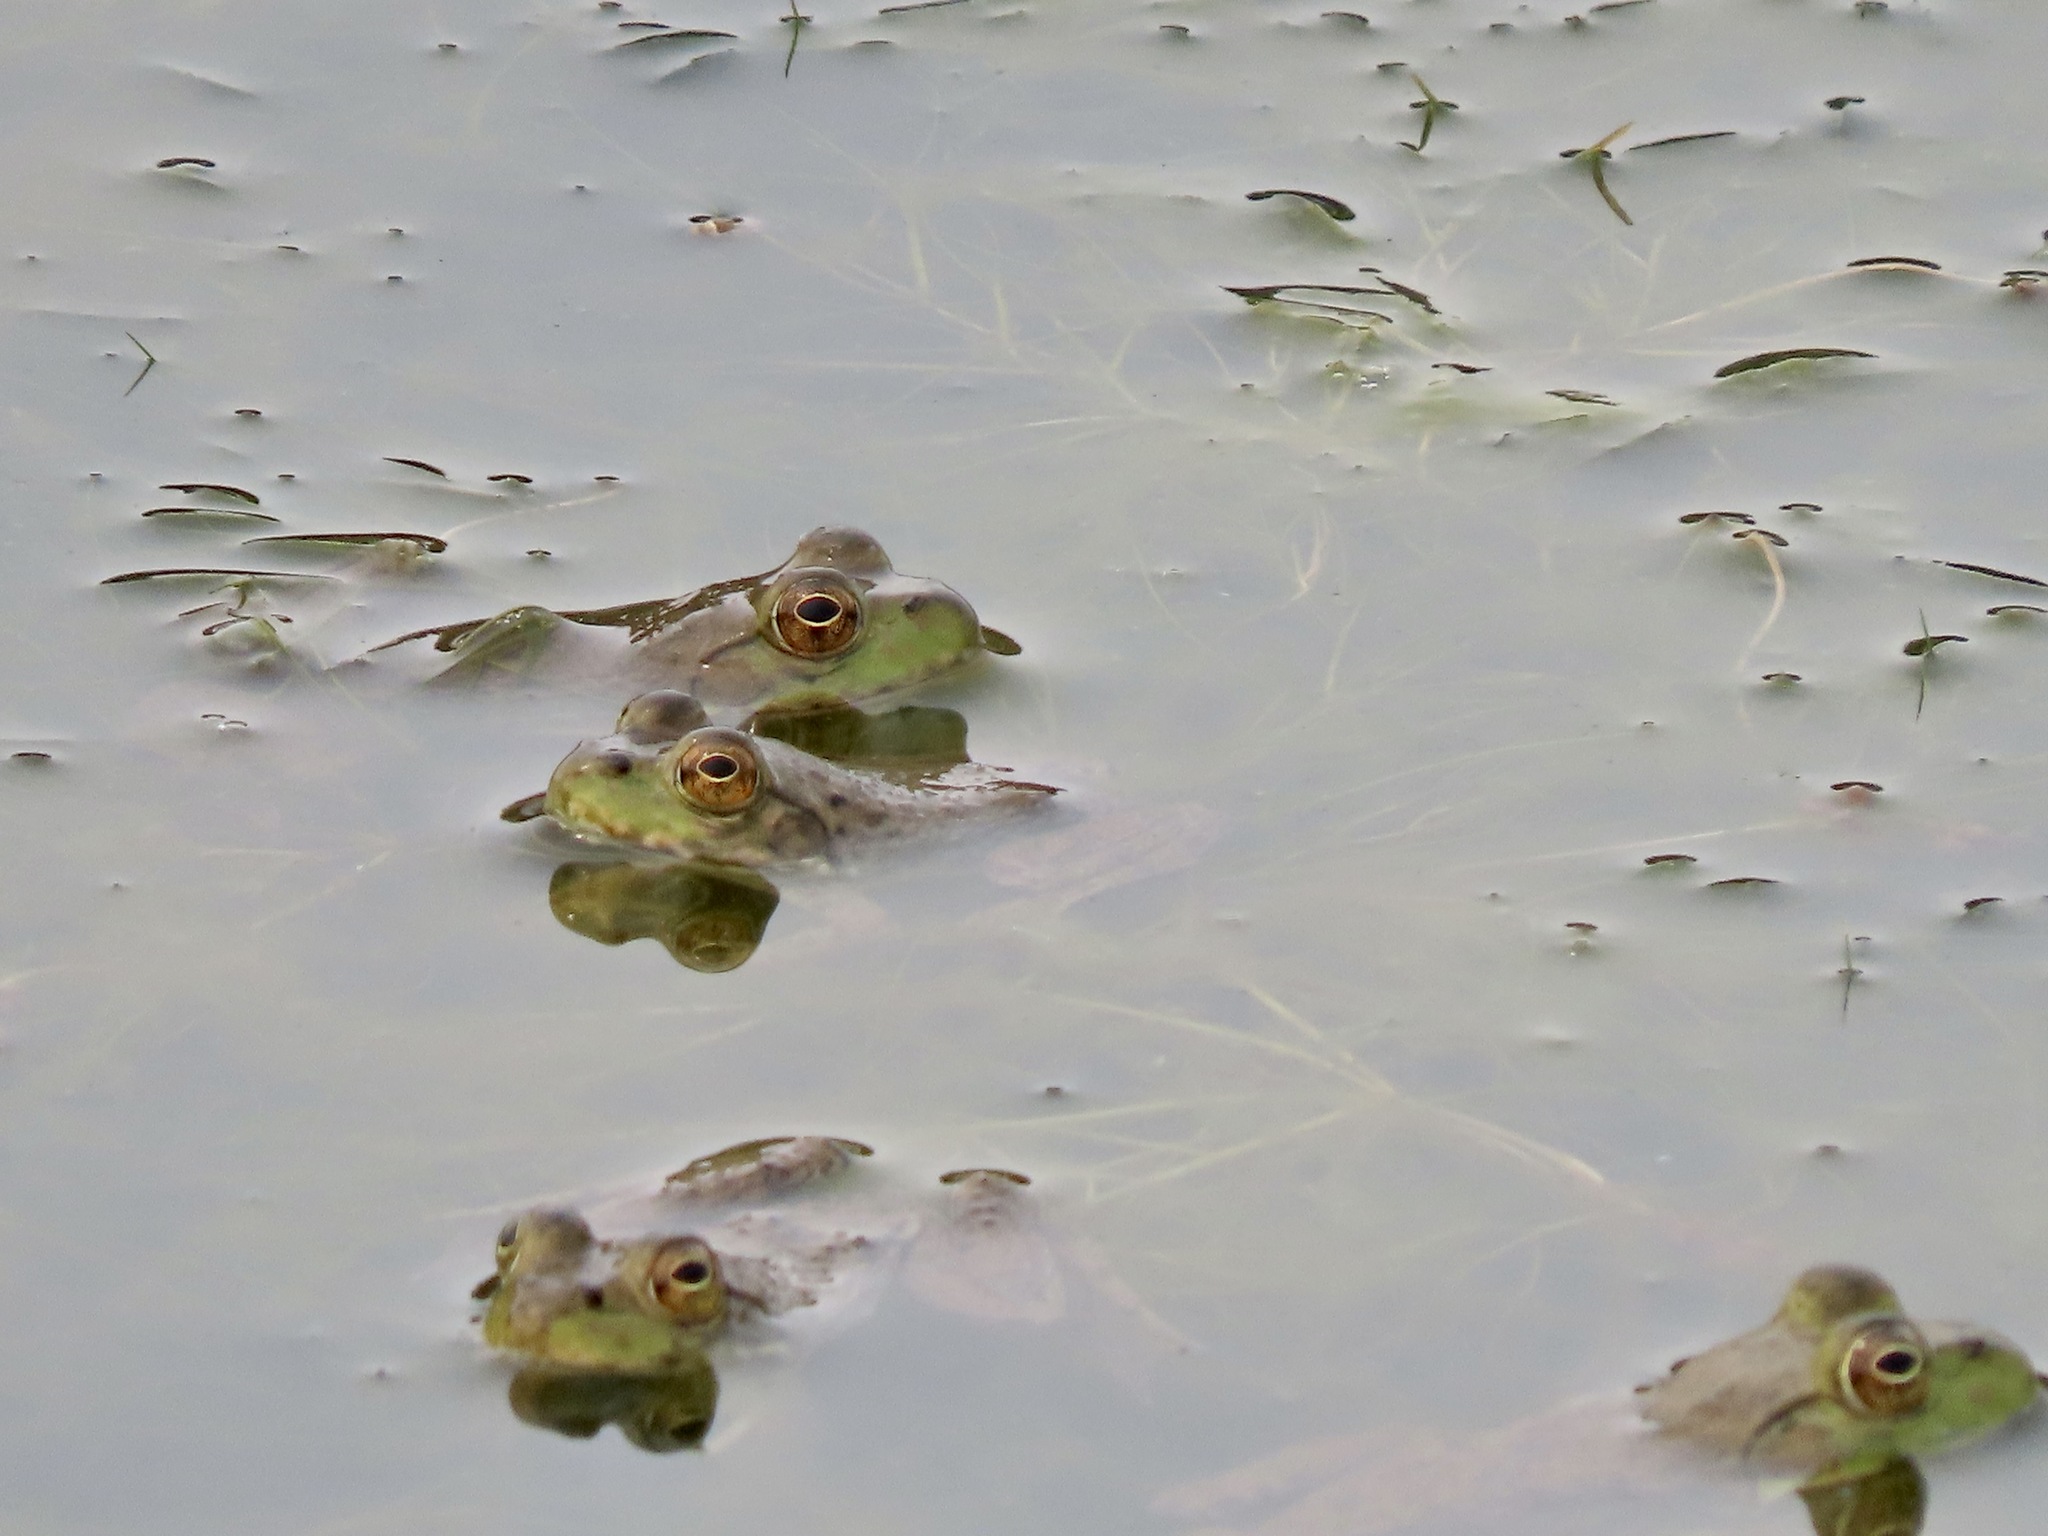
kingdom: Animalia
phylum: Chordata
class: Amphibia
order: Anura
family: Ranidae
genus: Lithobates
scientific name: Lithobates catesbeianus
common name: American bullfrog
